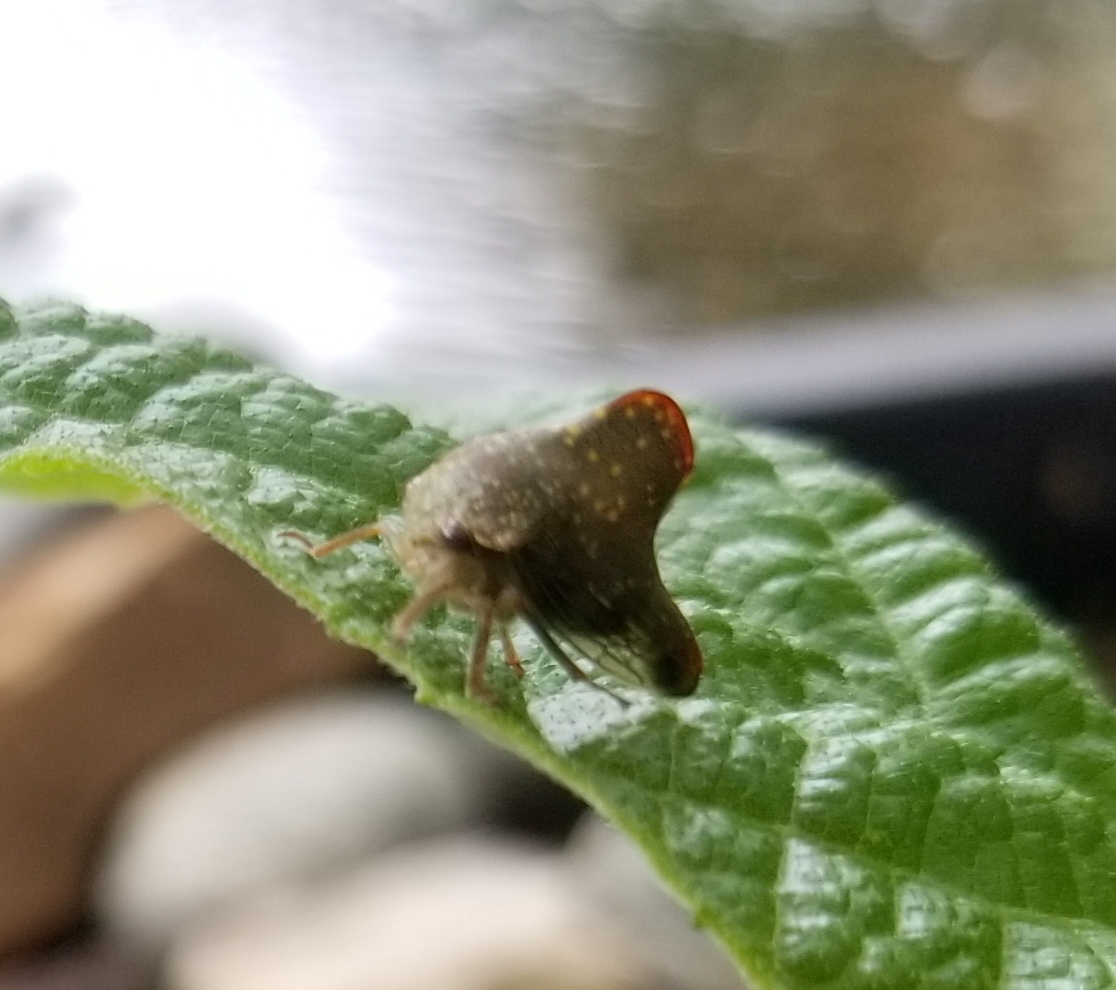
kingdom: Animalia
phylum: Arthropoda
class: Insecta
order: Hemiptera
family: Membracidae
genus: Telamona
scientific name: Telamona monticola
